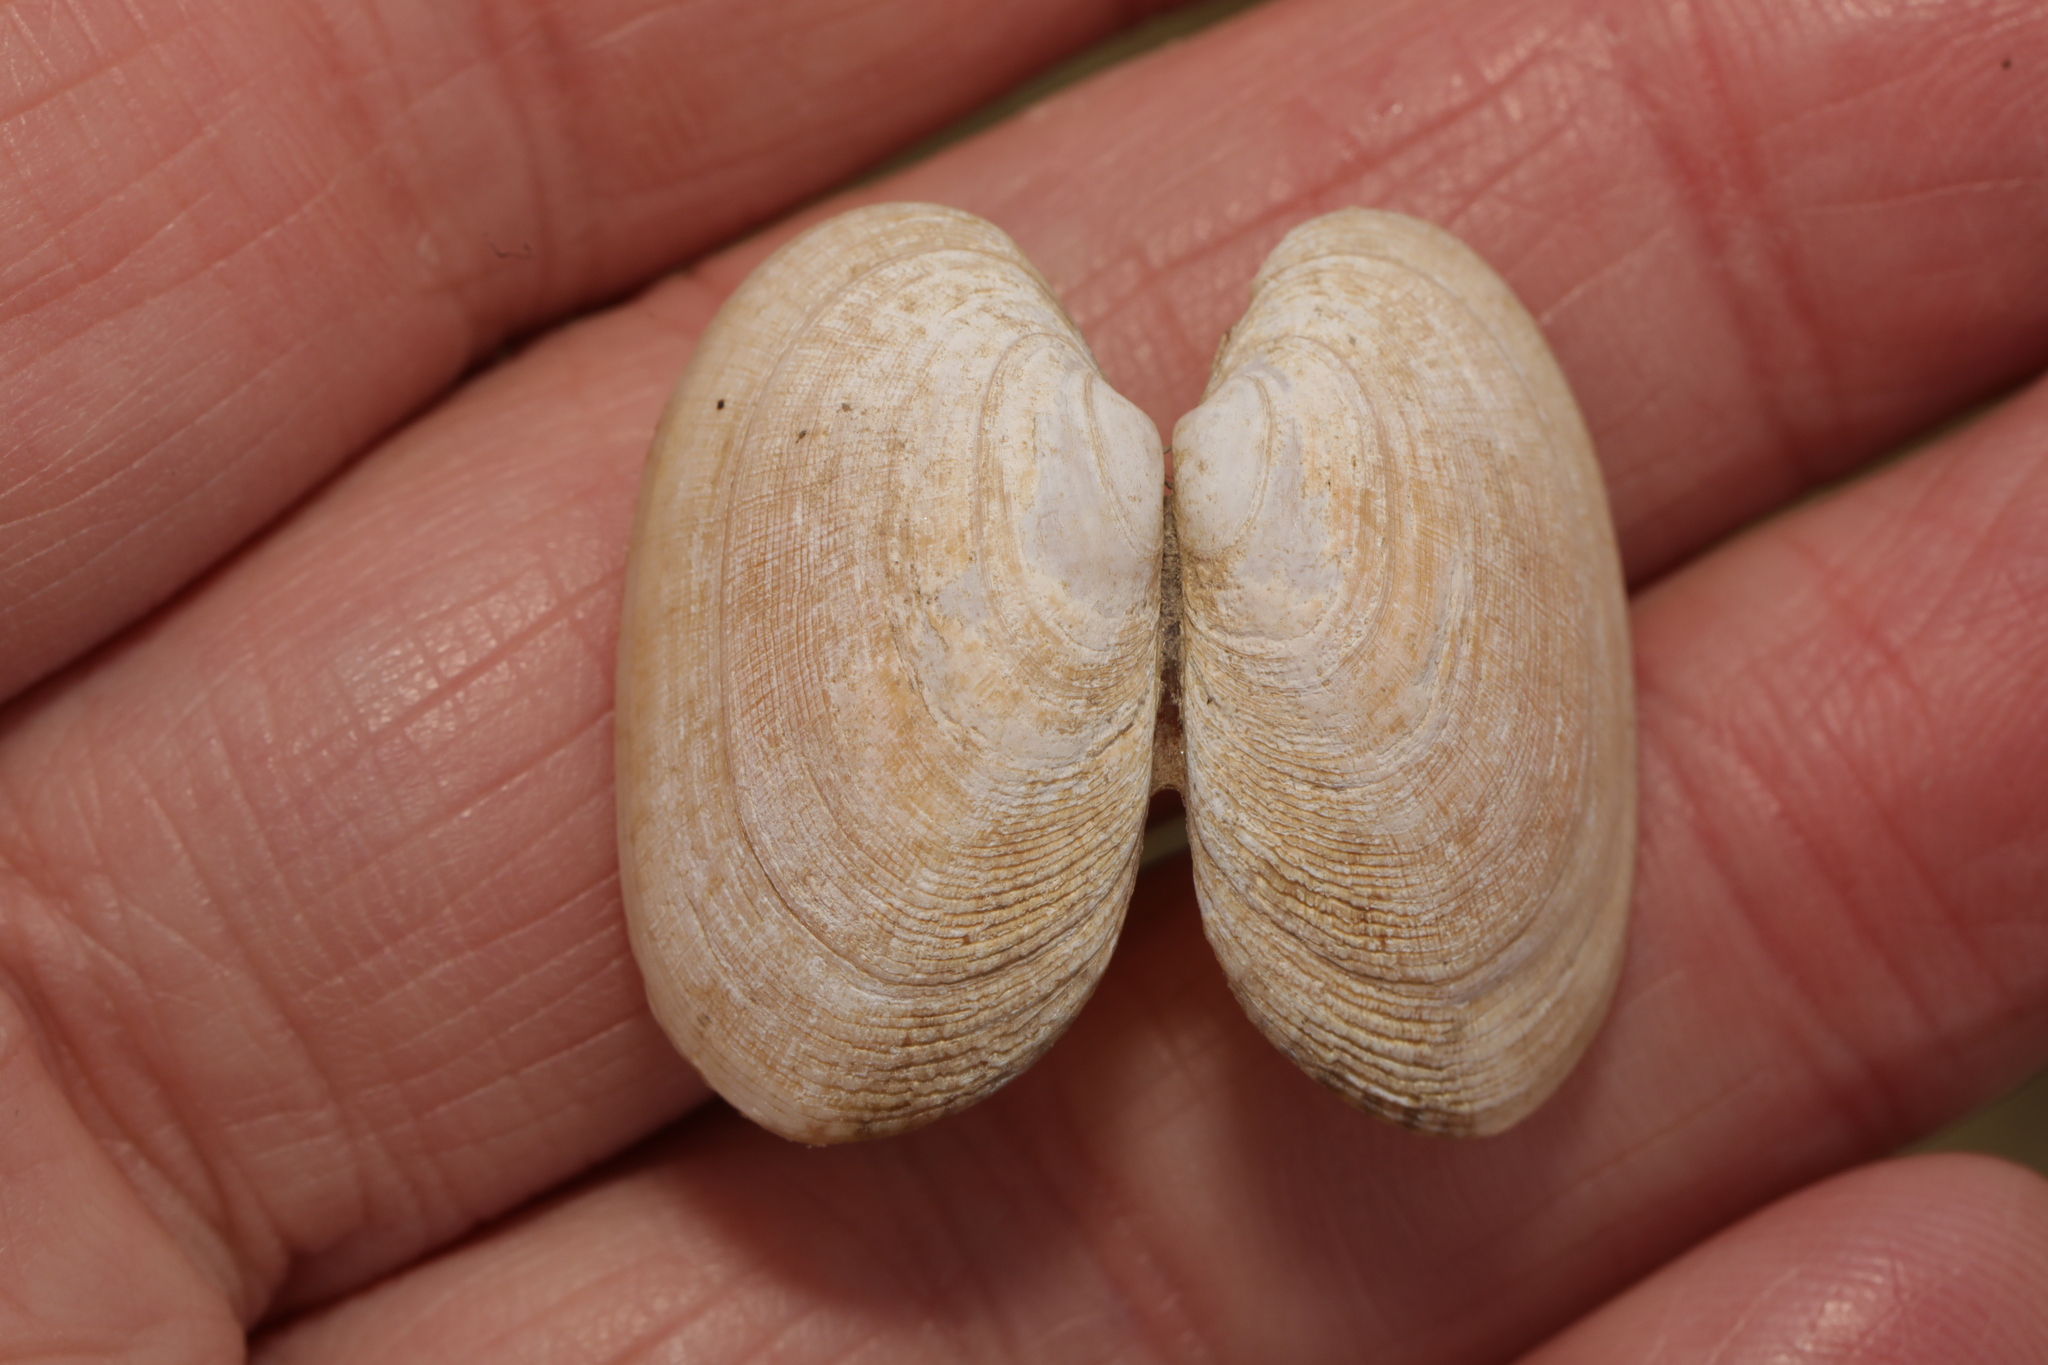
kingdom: Animalia
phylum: Mollusca
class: Bivalvia
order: Venerida
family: Veneridae
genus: Venerupis
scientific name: Venerupis corrugata
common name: Pullet carpet shell
